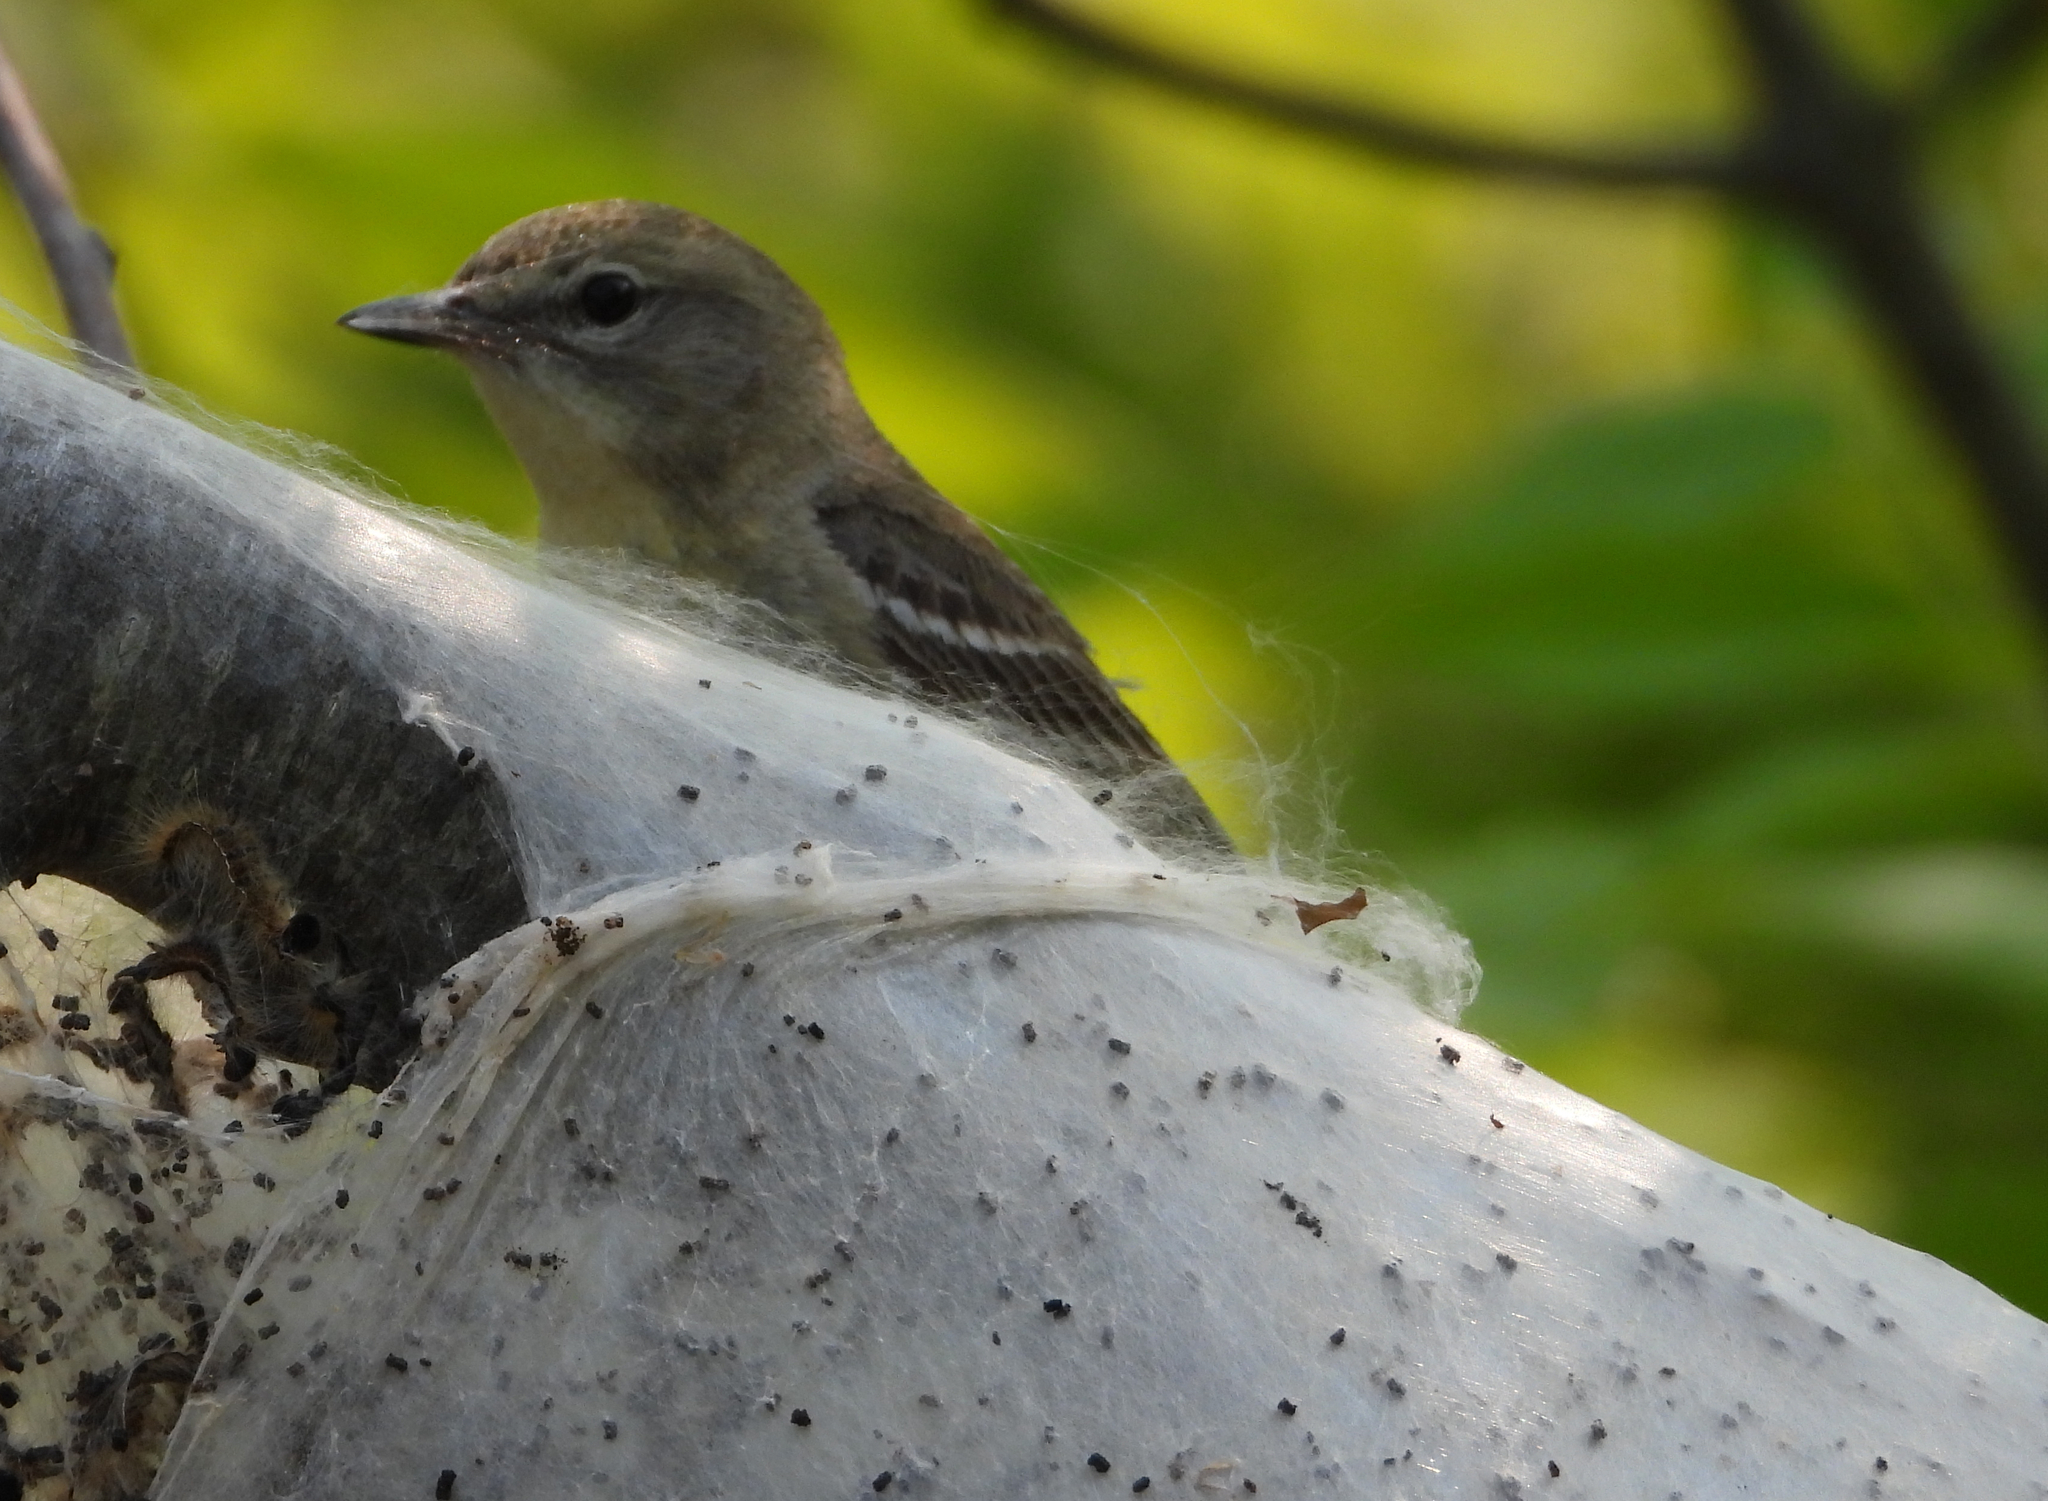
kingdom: Animalia
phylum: Chordata
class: Aves
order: Passeriformes
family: Parulidae
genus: Setophaga
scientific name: Setophaga pinus
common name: Pine warbler
